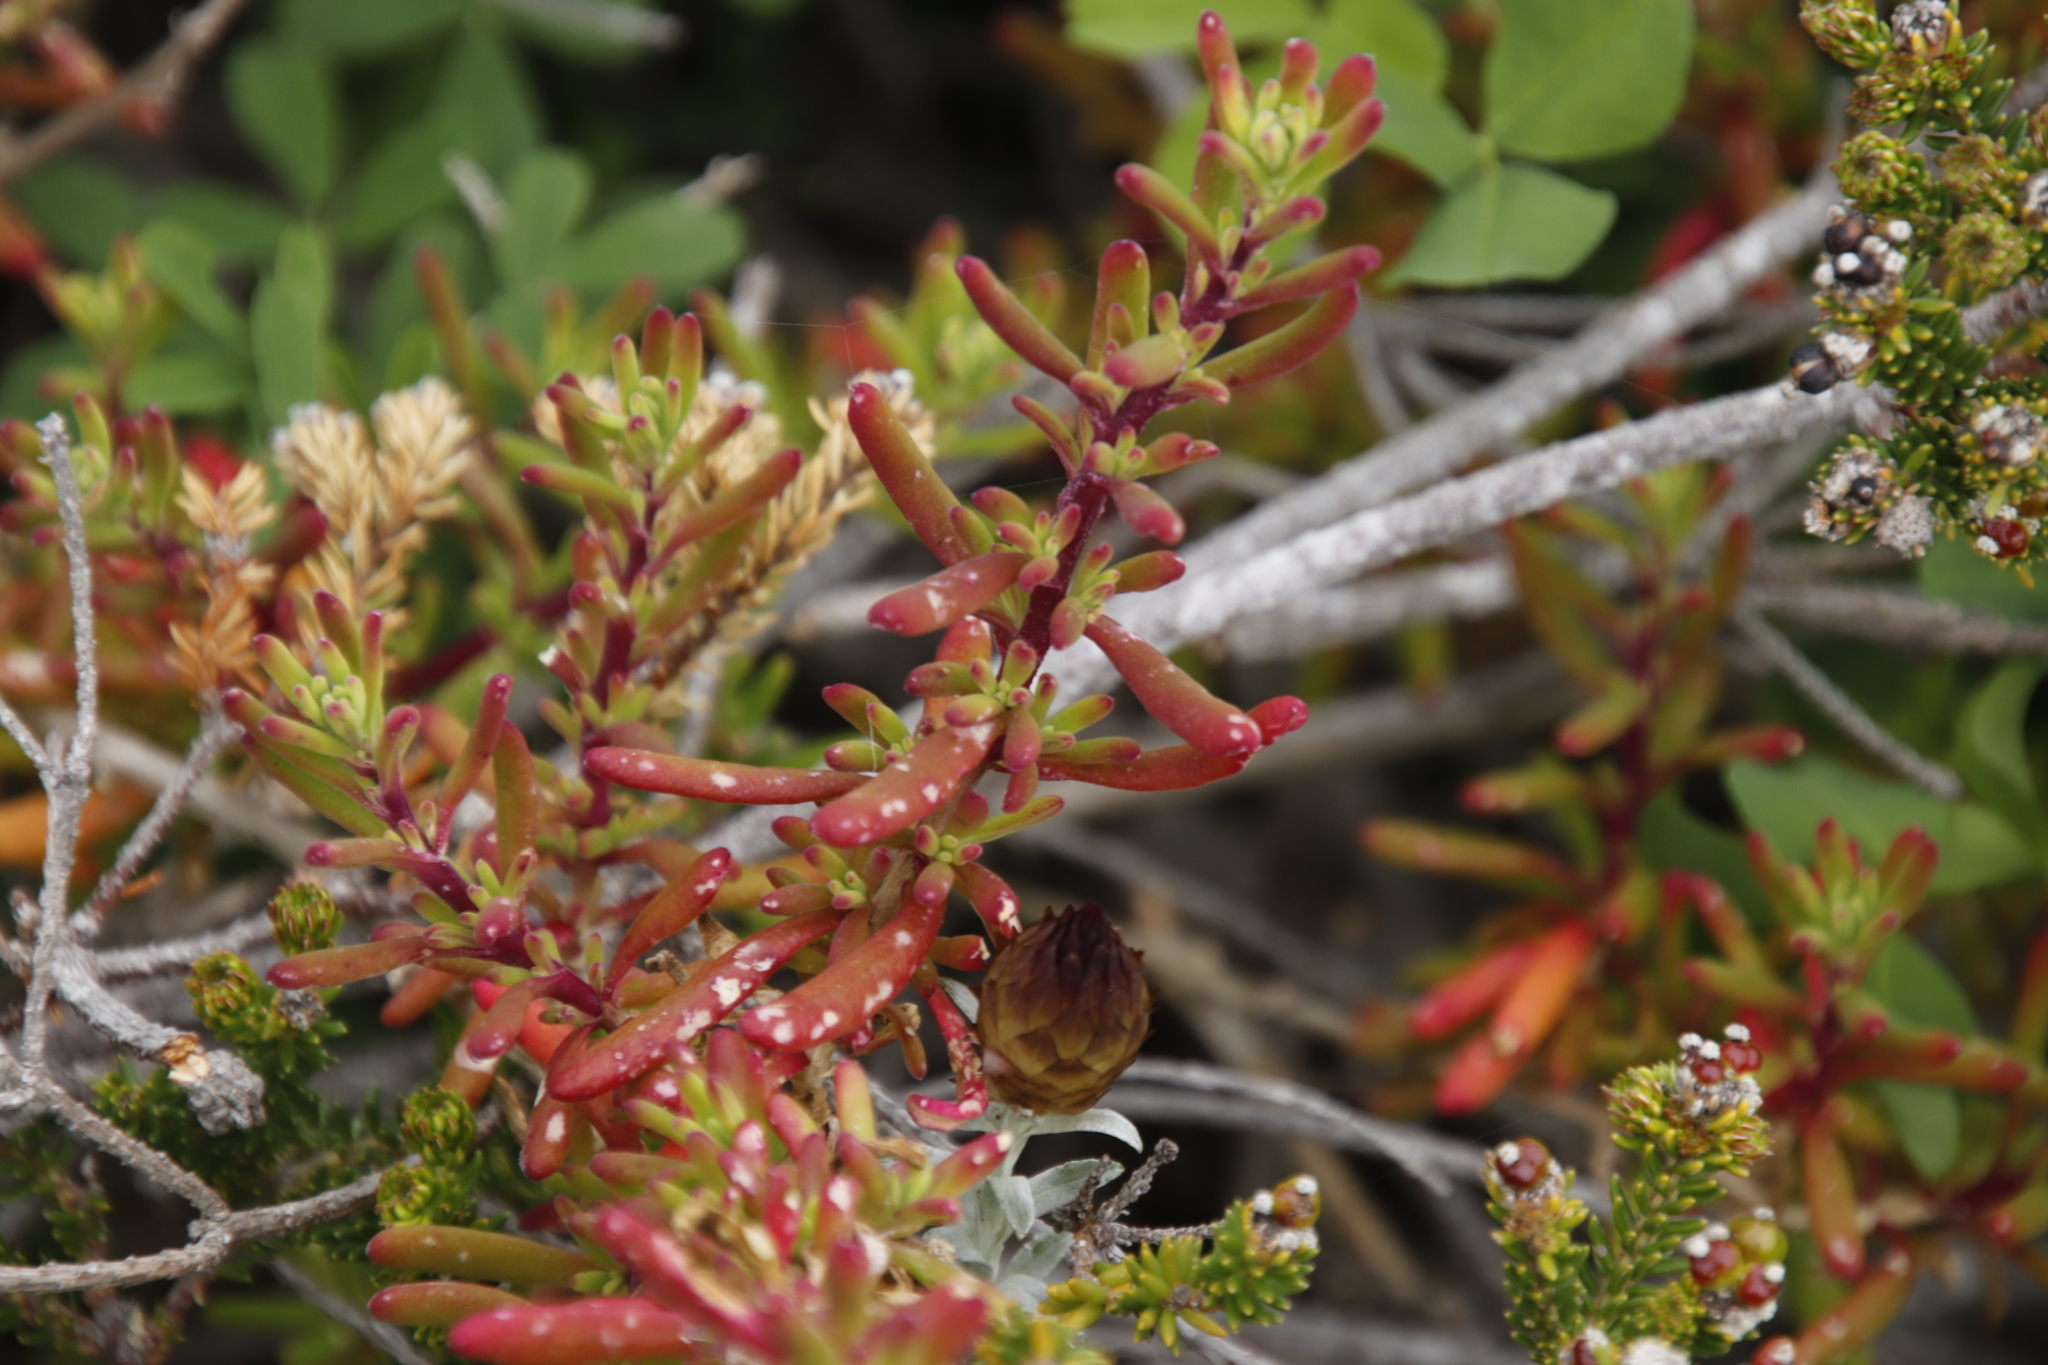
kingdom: Plantae
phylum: Tracheophyta
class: Magnoliopsida
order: Caryophyllales
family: Aizoaceae
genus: Tetragonia
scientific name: Tetragonia fruticosa
